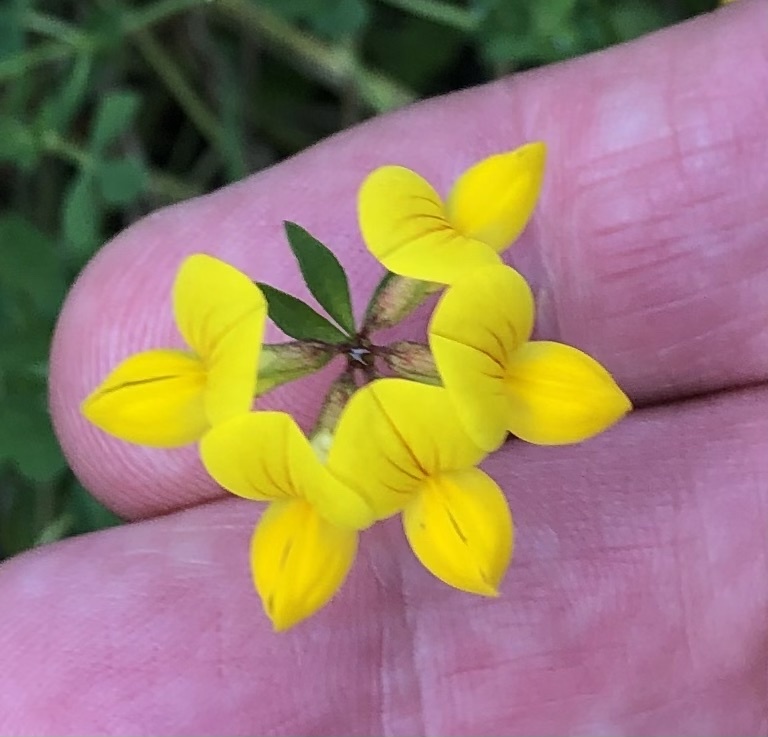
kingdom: Plantae
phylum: Tracheophyta
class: Magnoliopsida
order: Fabales
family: Fabaceae
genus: Lotus
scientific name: Lotus corniculatus
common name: Common bird's-foot-trefoil
